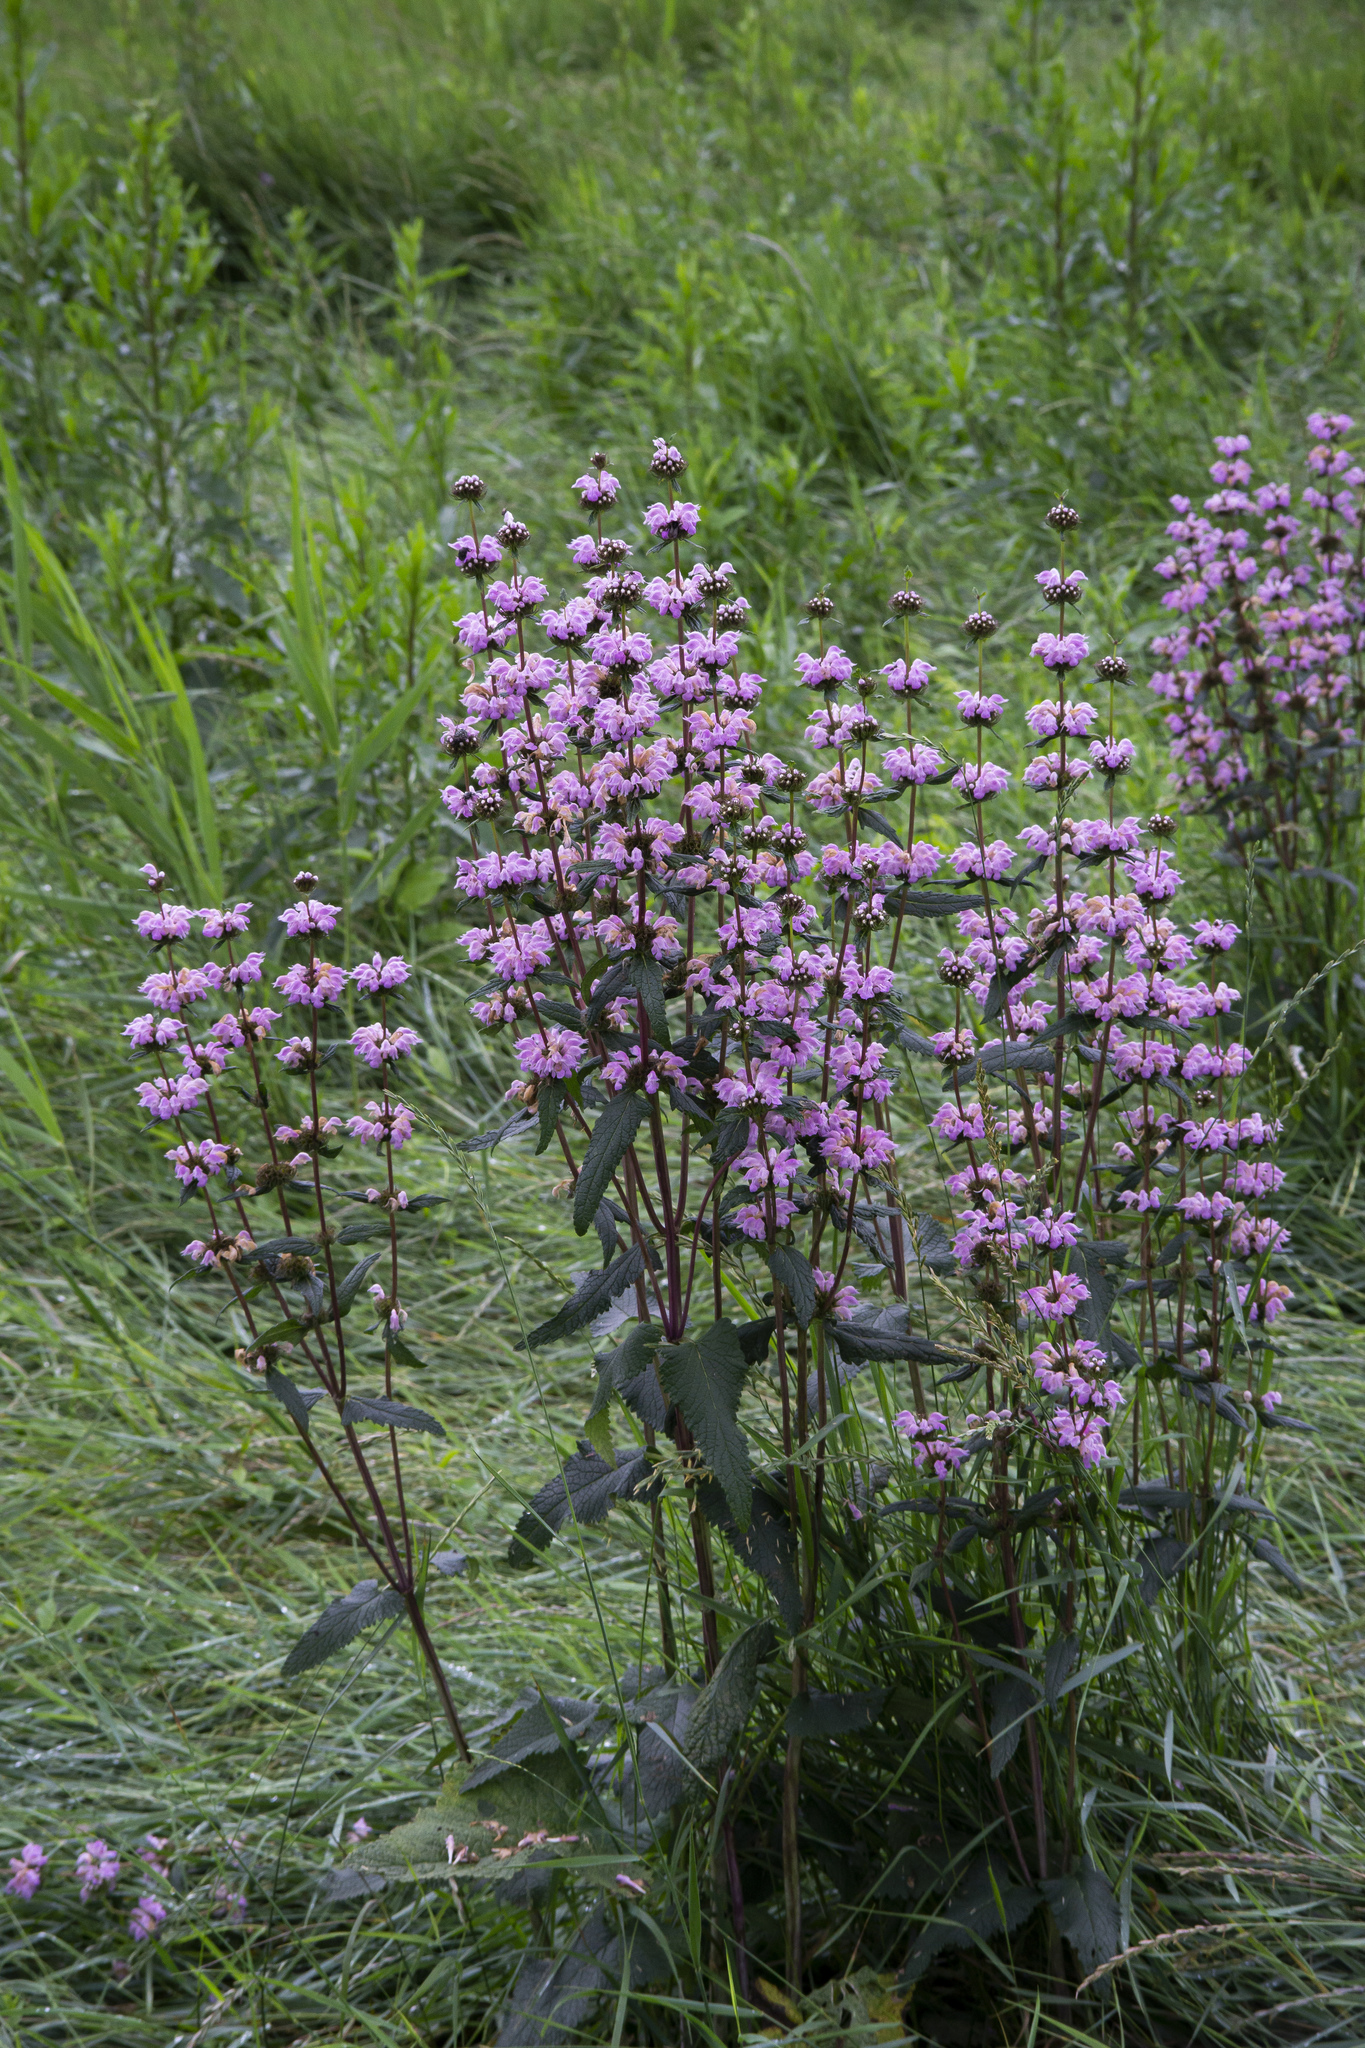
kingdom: Plantae
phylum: Tracheophyta
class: Magnoliopsida
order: Lamiales
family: Lamiaceae
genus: Phlomoides
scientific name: Phlomoides tuberosa
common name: Tuberous jerusalem sage
